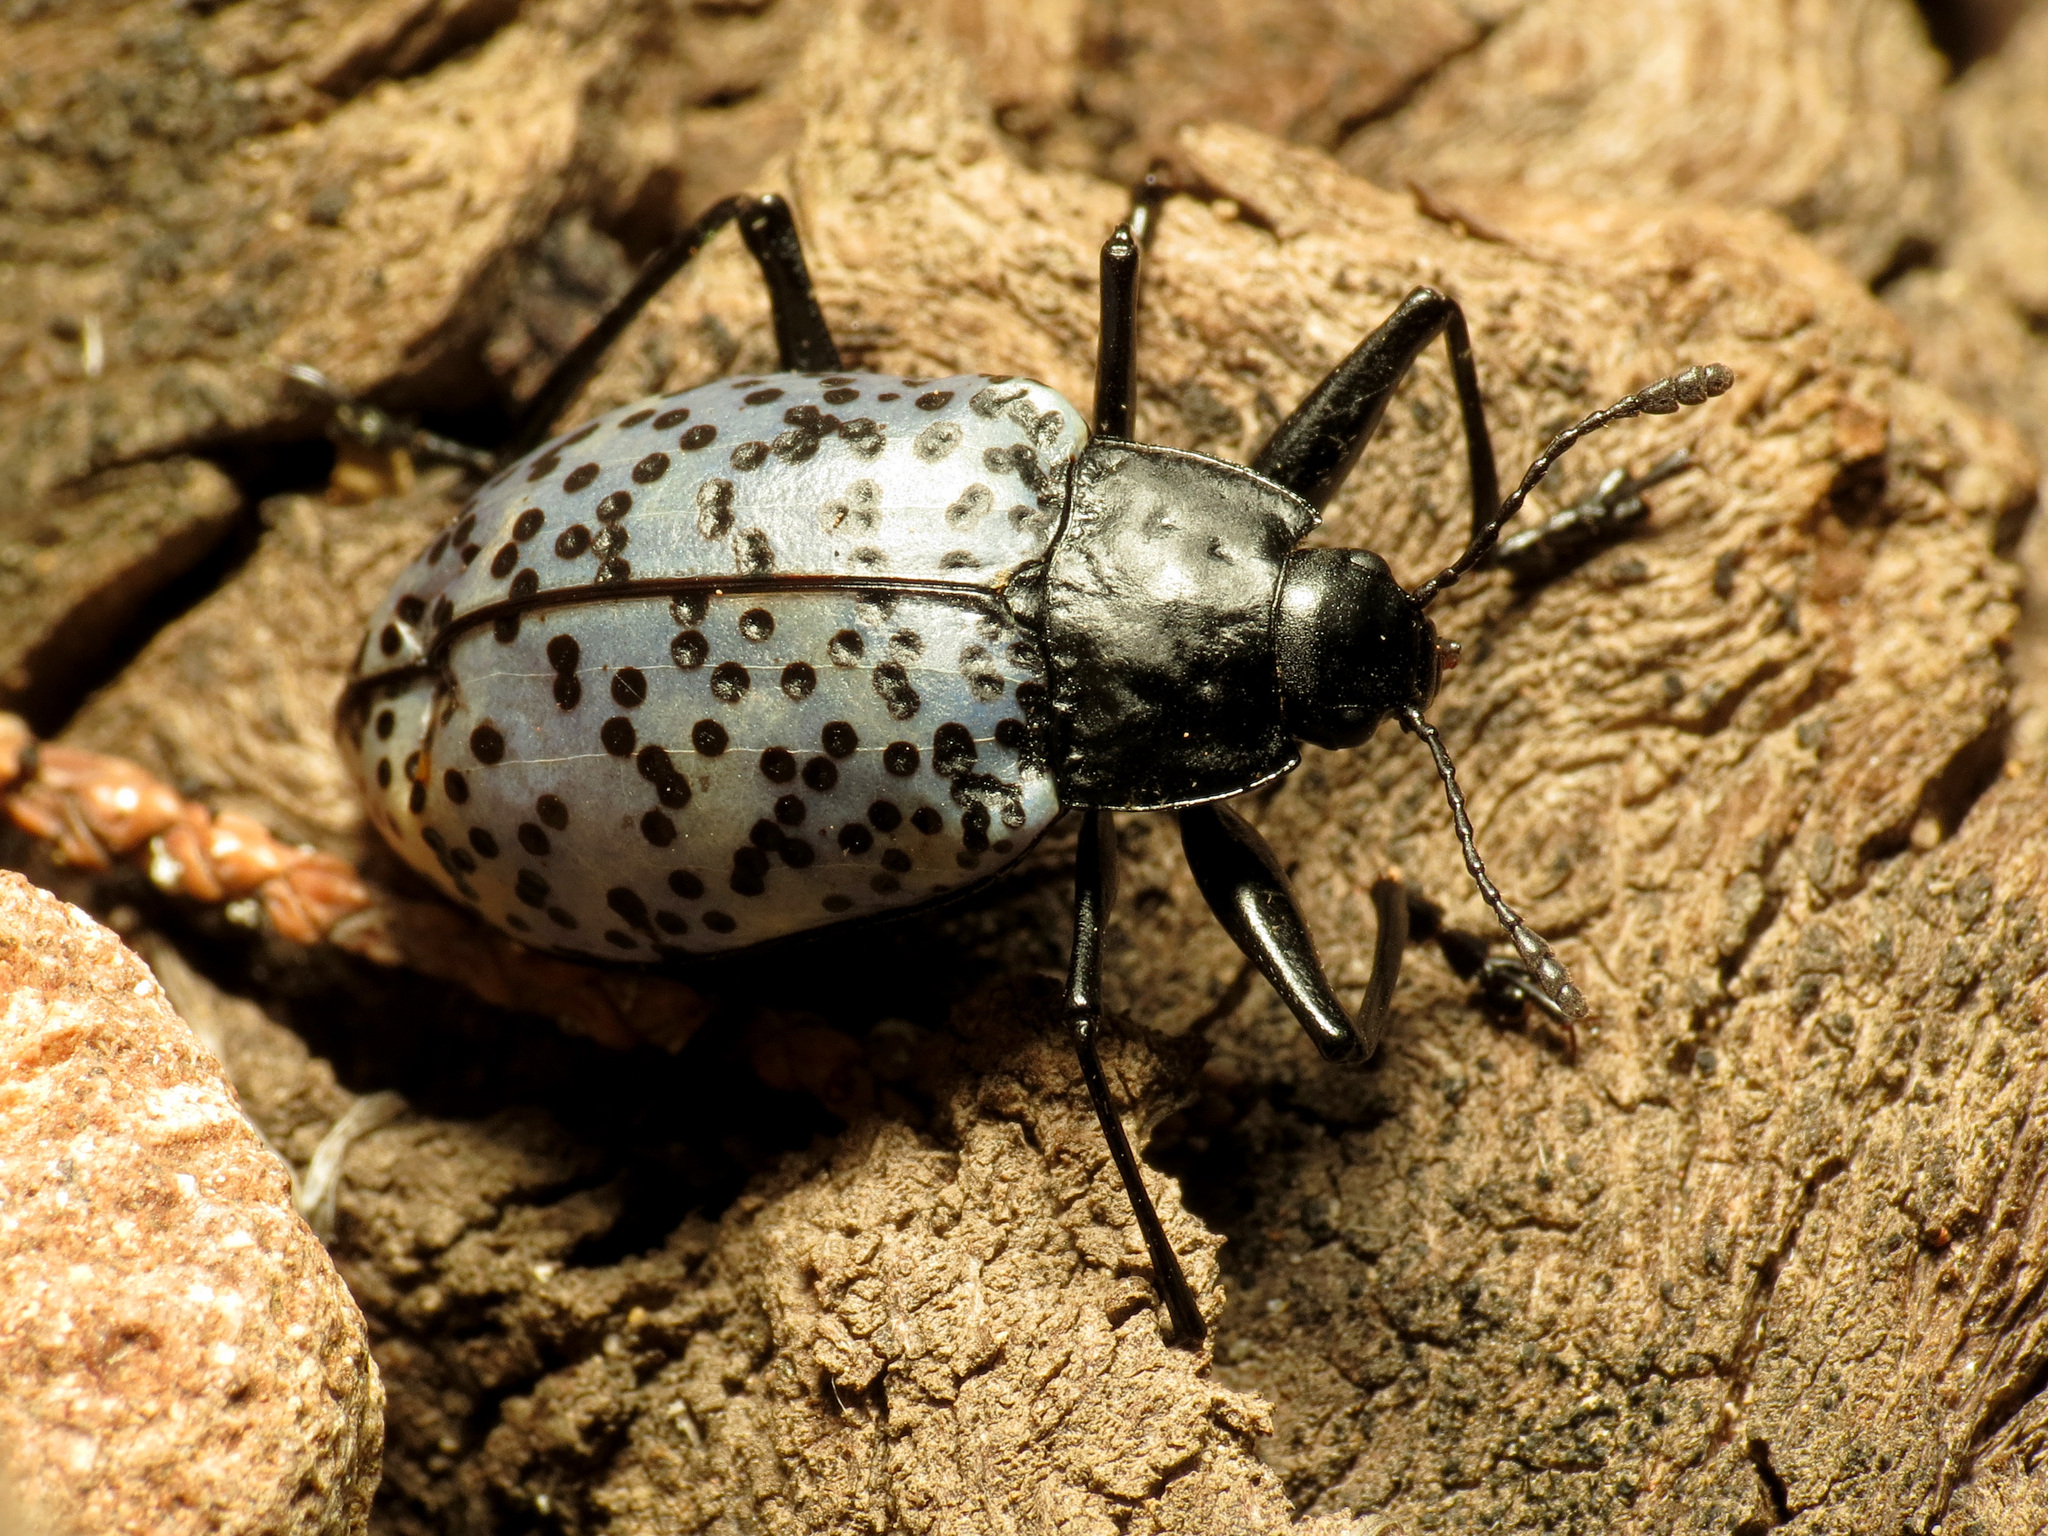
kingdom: Animalia
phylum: Arthropoda
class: Insecta
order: Coleoptera
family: Erotylidae
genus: Gibbifer
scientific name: Gibbifer californicus
